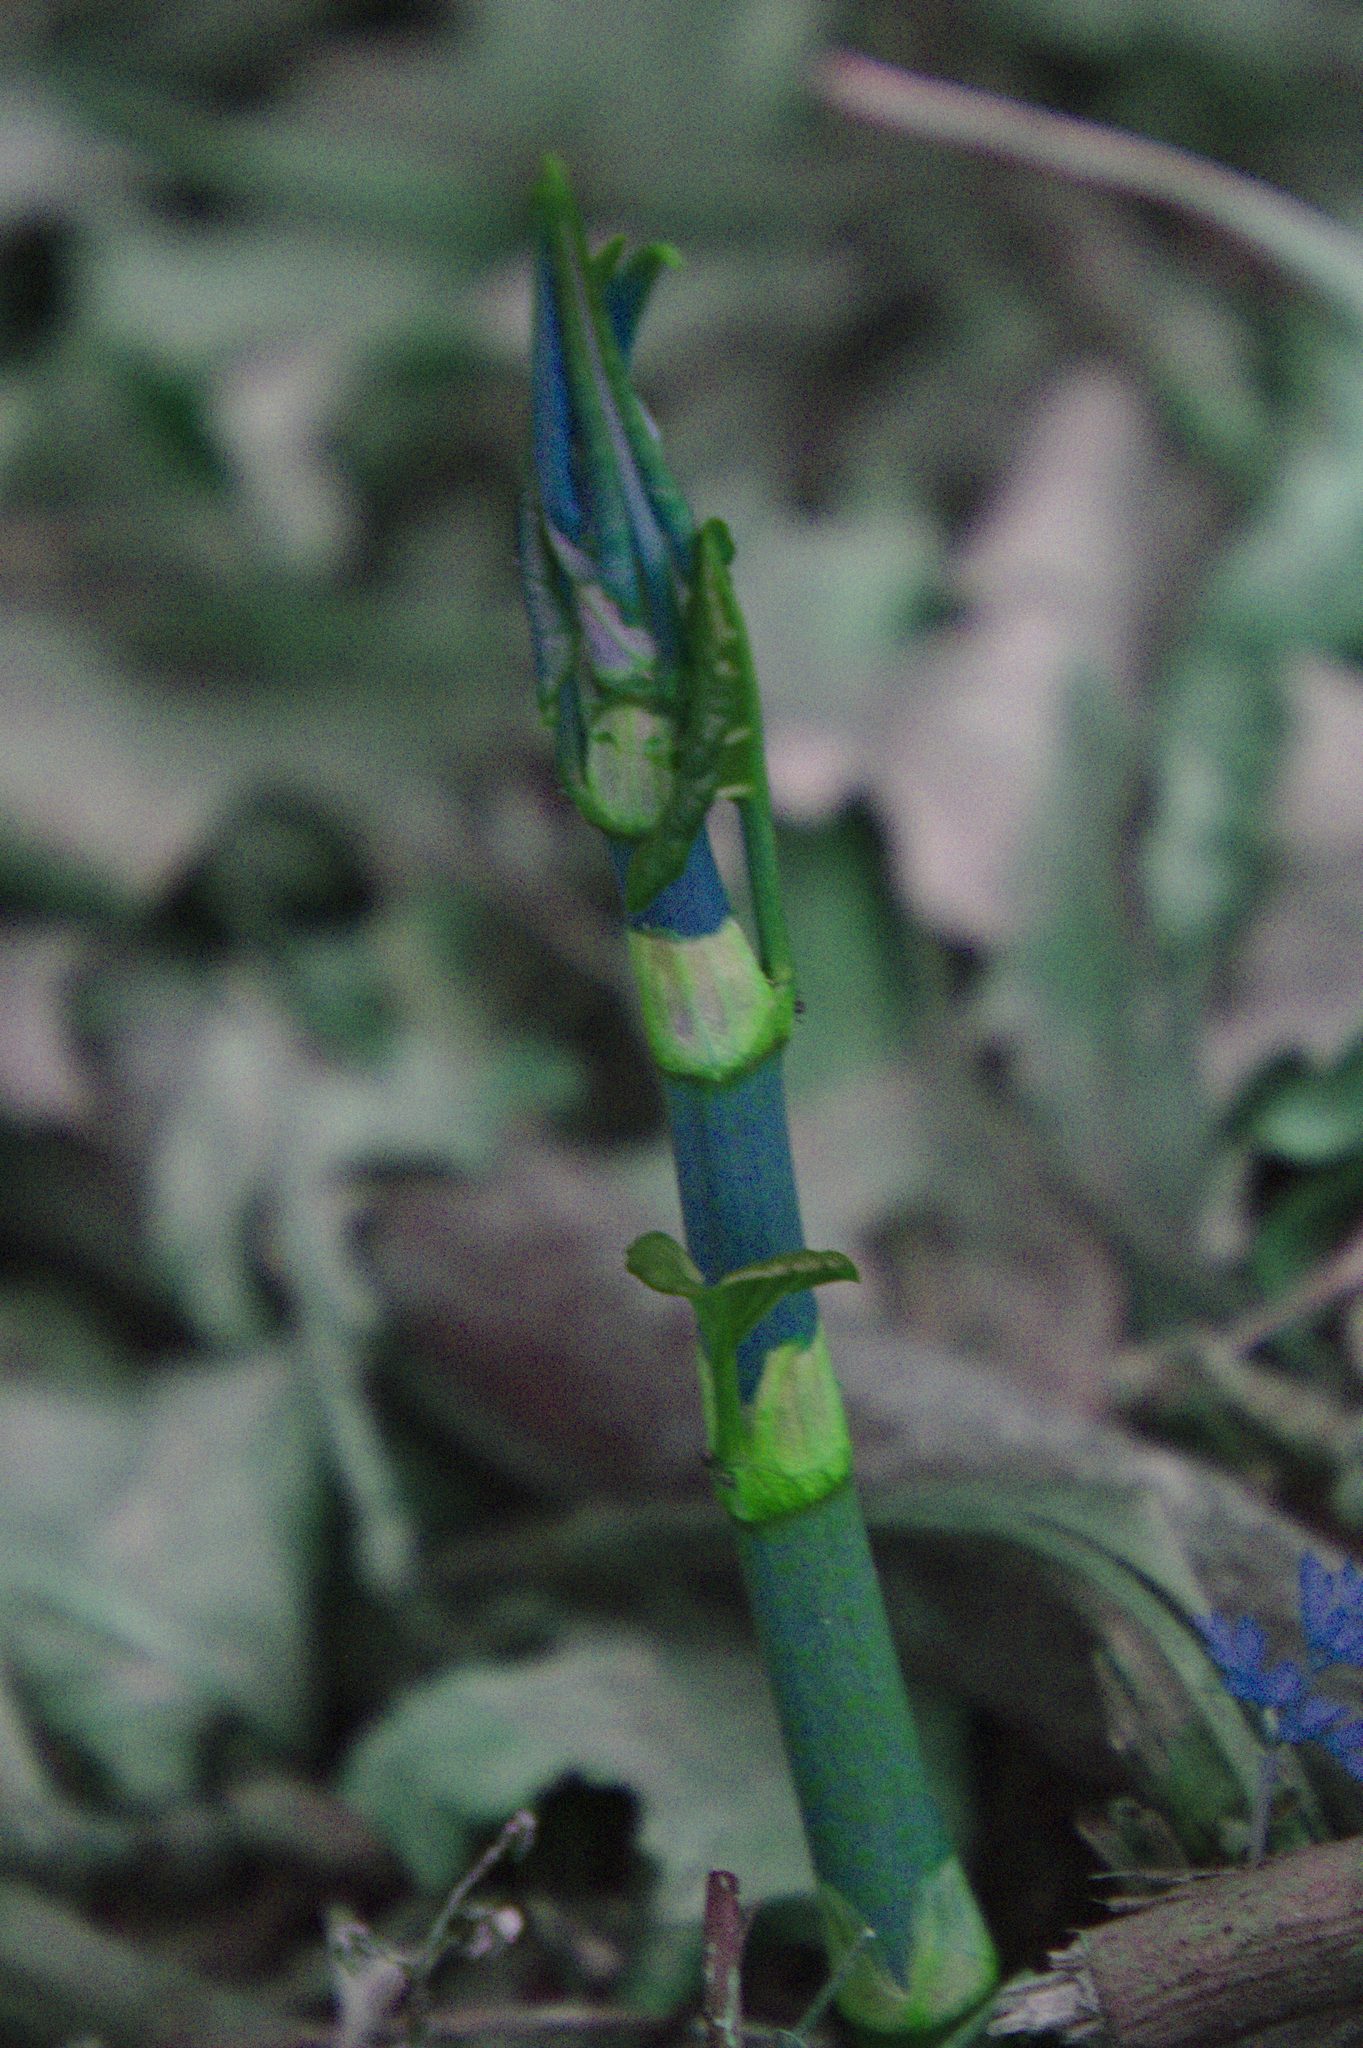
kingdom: Plantae
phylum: Tracheophyta
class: Magnoliopsida
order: Caryophyllales
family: Polygonaceae
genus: Reynoutria
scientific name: Reynoutria japonica
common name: Japanese knotweed
